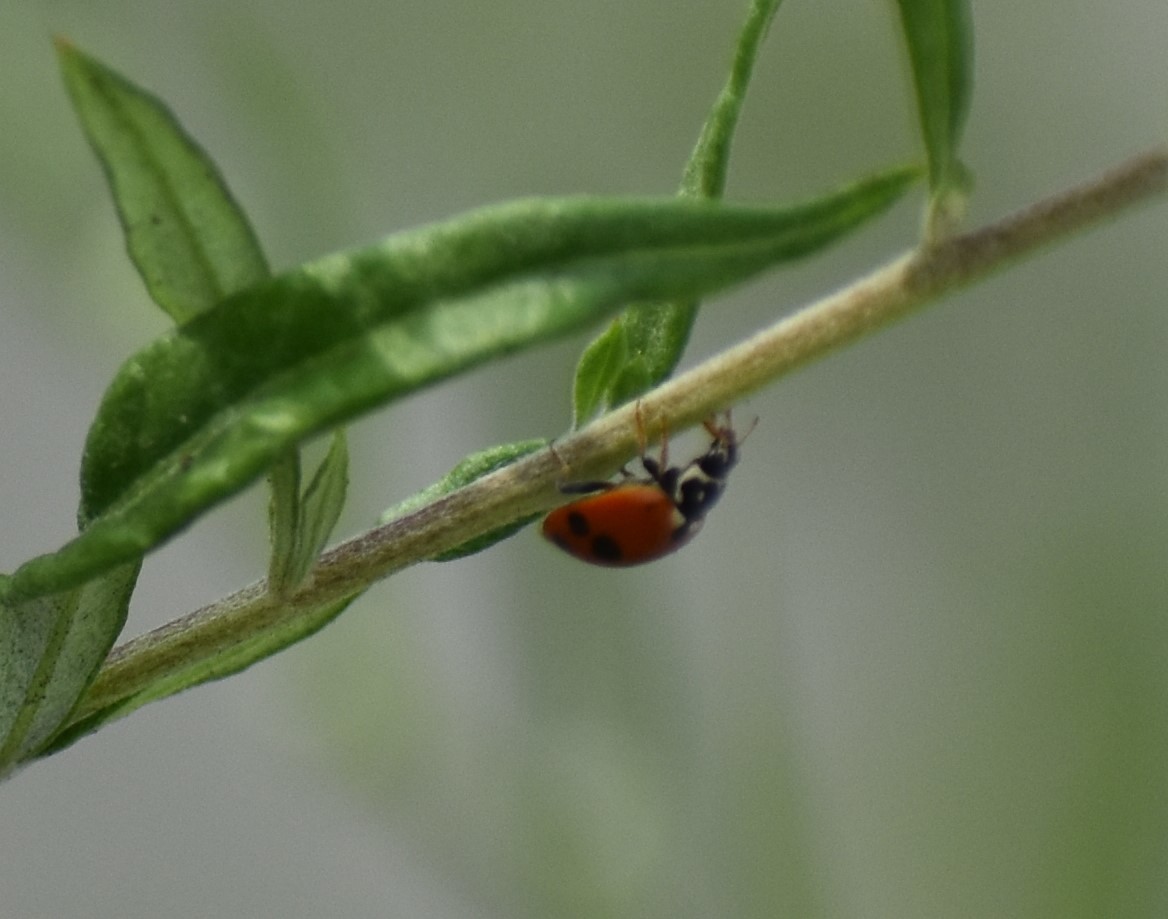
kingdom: Animalia
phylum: Arthropoda
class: Insecta
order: Coleoptera
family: Coccinellidae
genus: Hippodamia
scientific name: Hippodamia variegata
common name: Ladybird beetle
